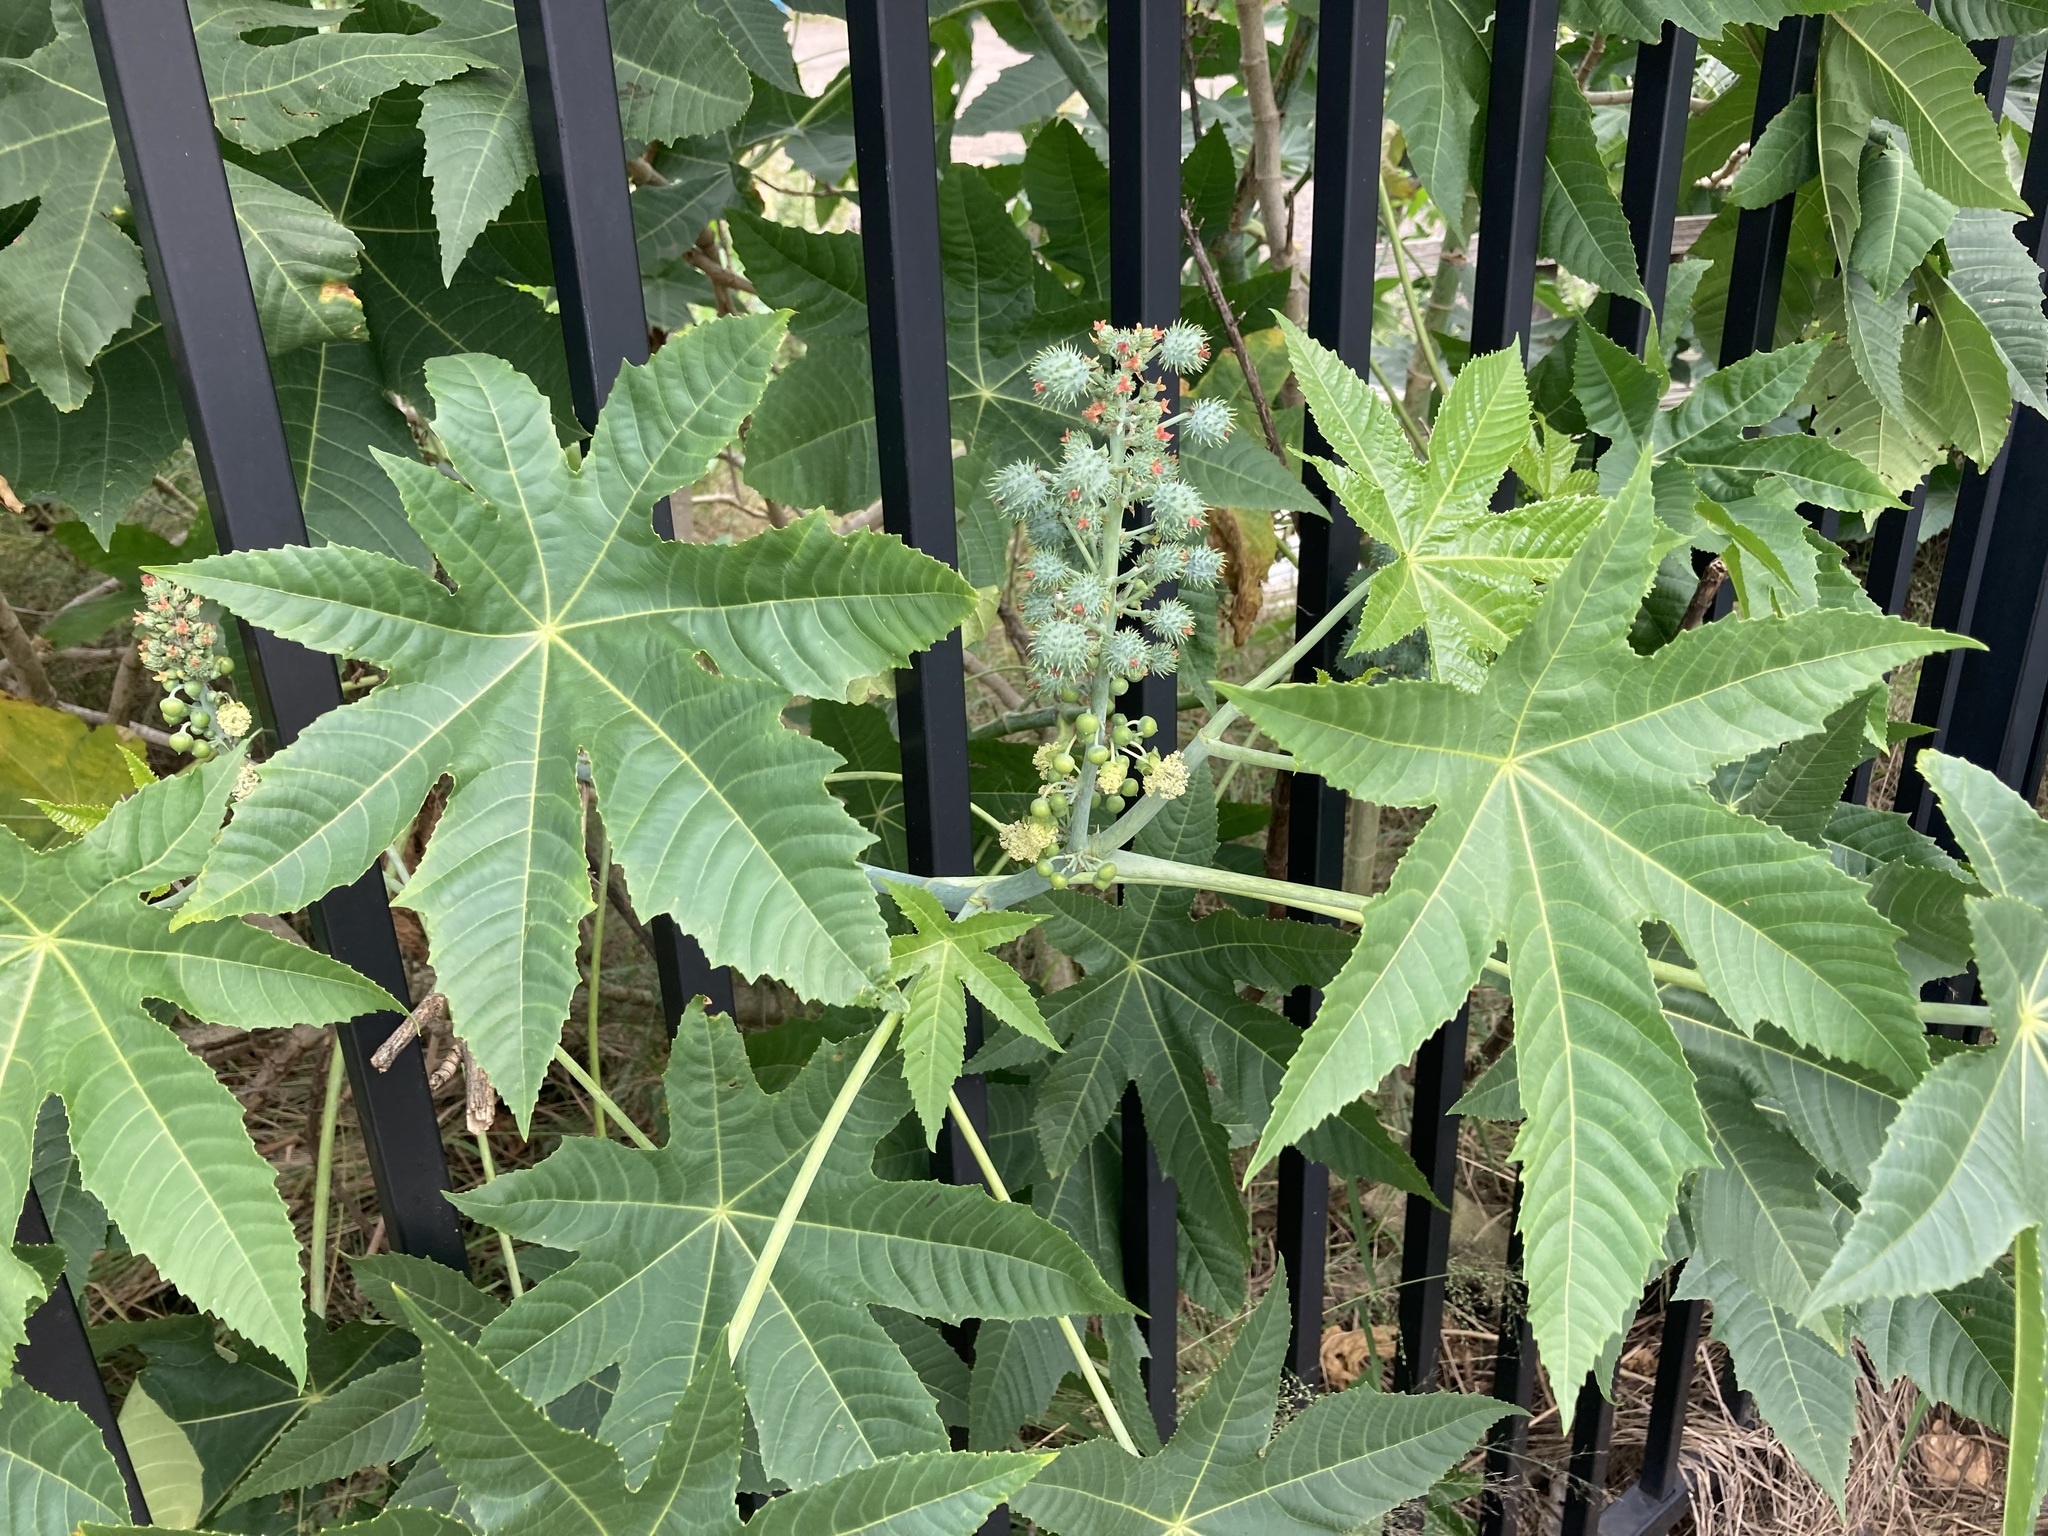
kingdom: Plantae
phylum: Tracheophyta
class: Magnoliopsida
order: Malpighiales
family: Euphorbiaceae
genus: Ricinus
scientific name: Ricinus communis
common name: Castor-oil-plant
